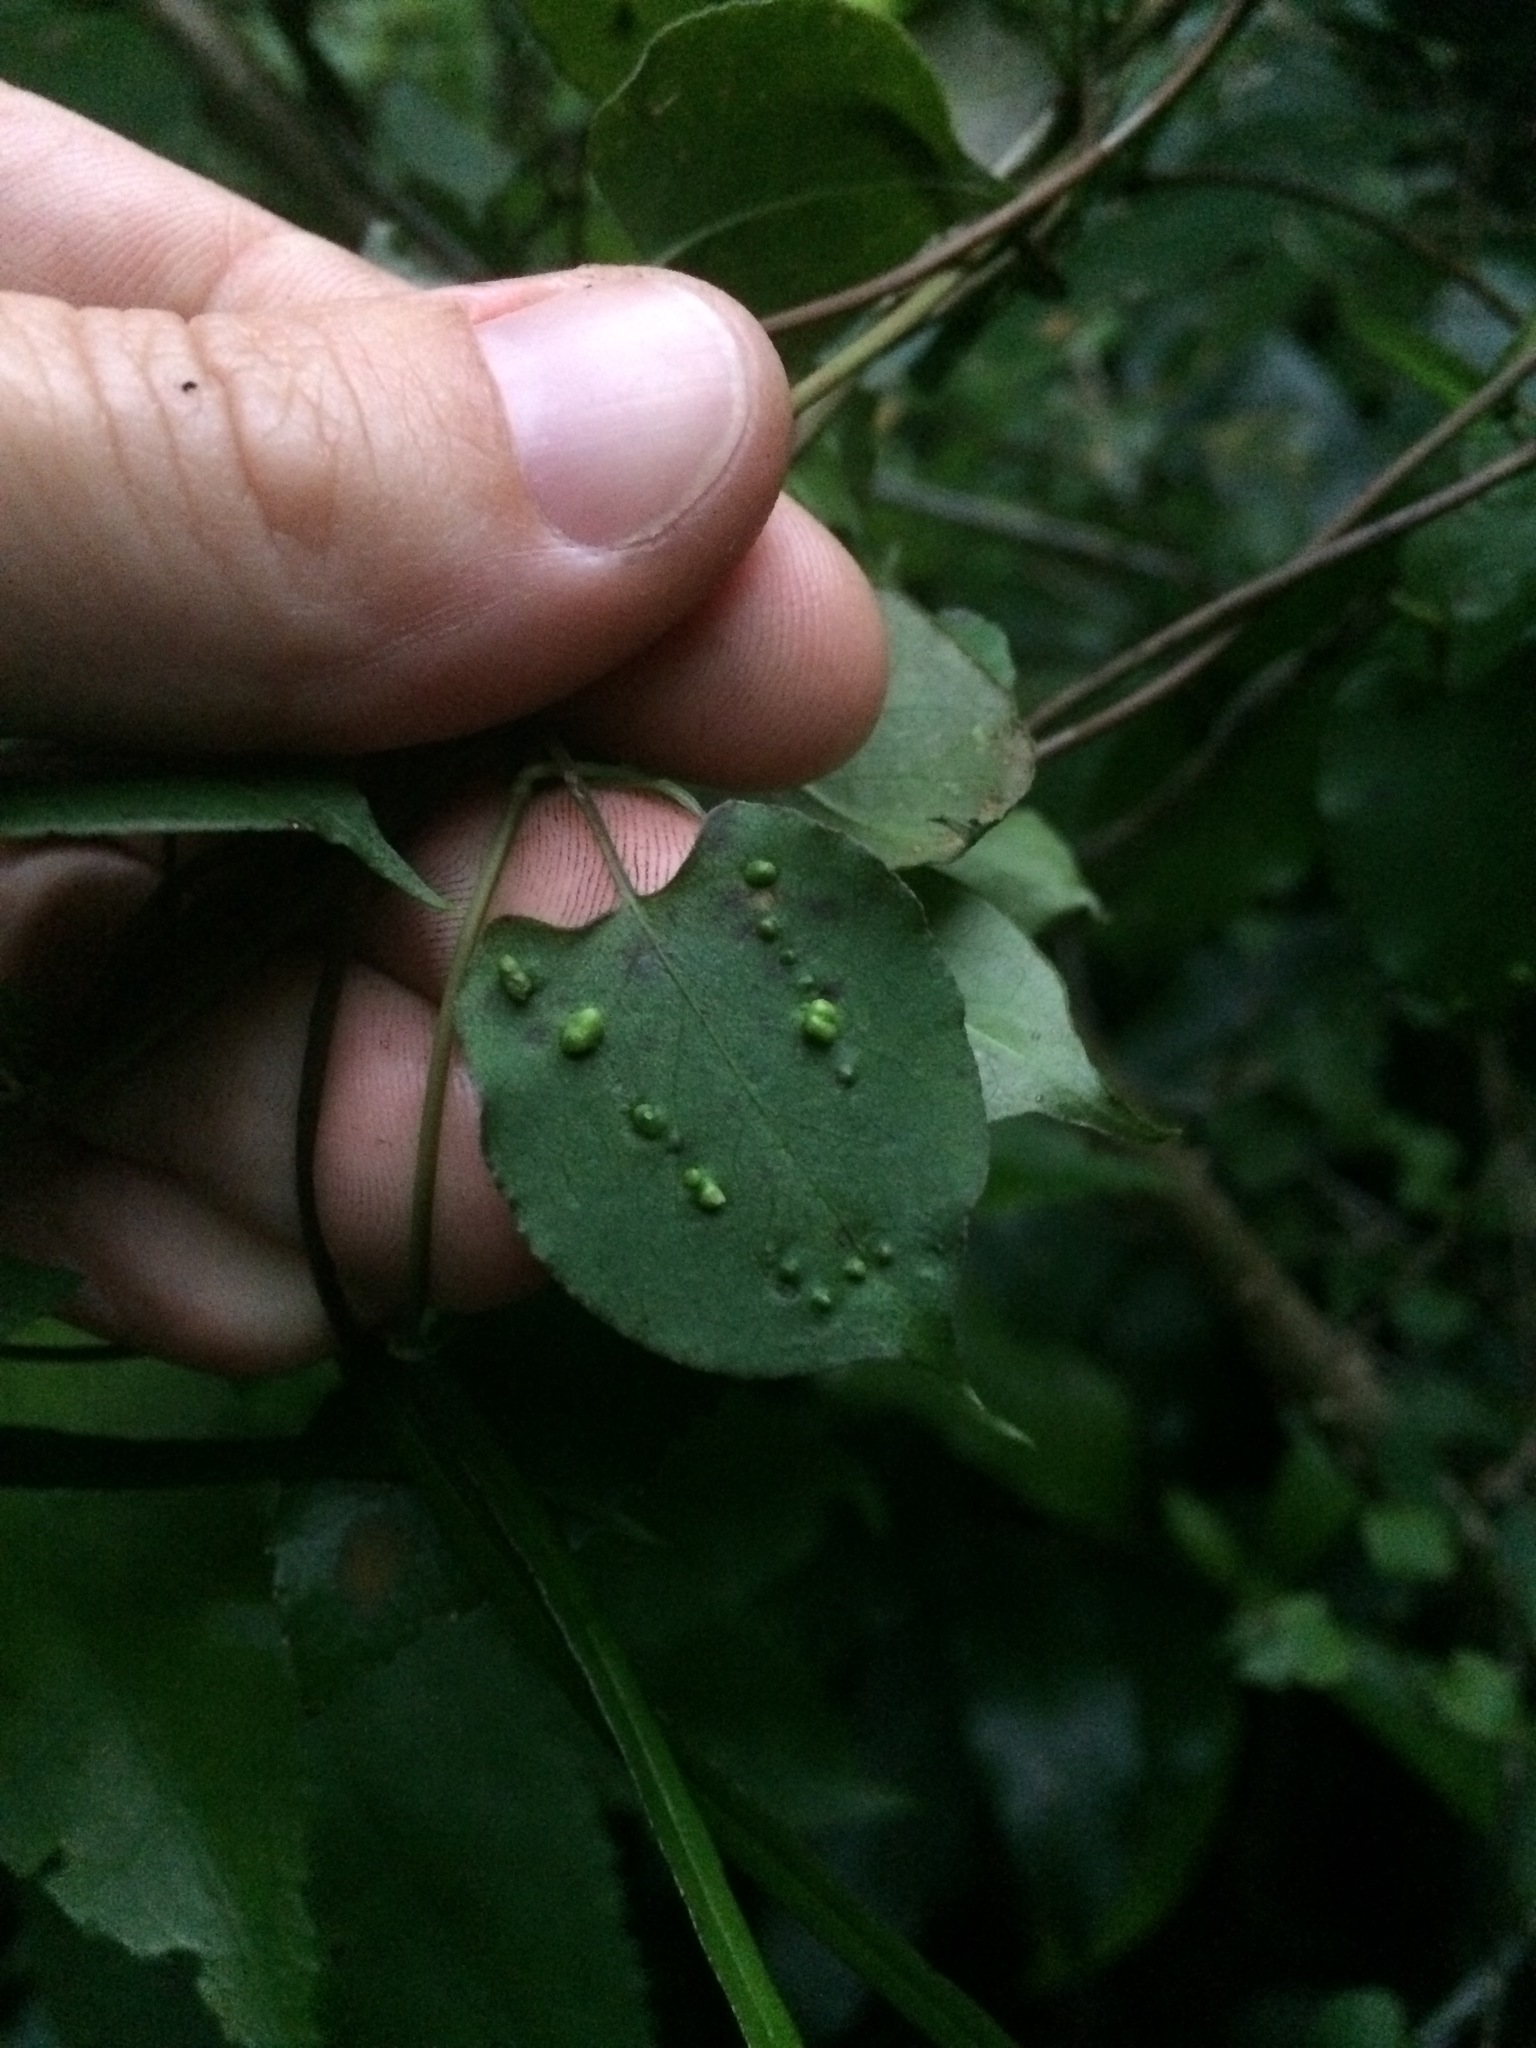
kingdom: Animalia
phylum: Arthropoda
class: Arachnida
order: Trombidiformes
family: Eriophyidae
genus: Aceria
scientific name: Aceria lamii
